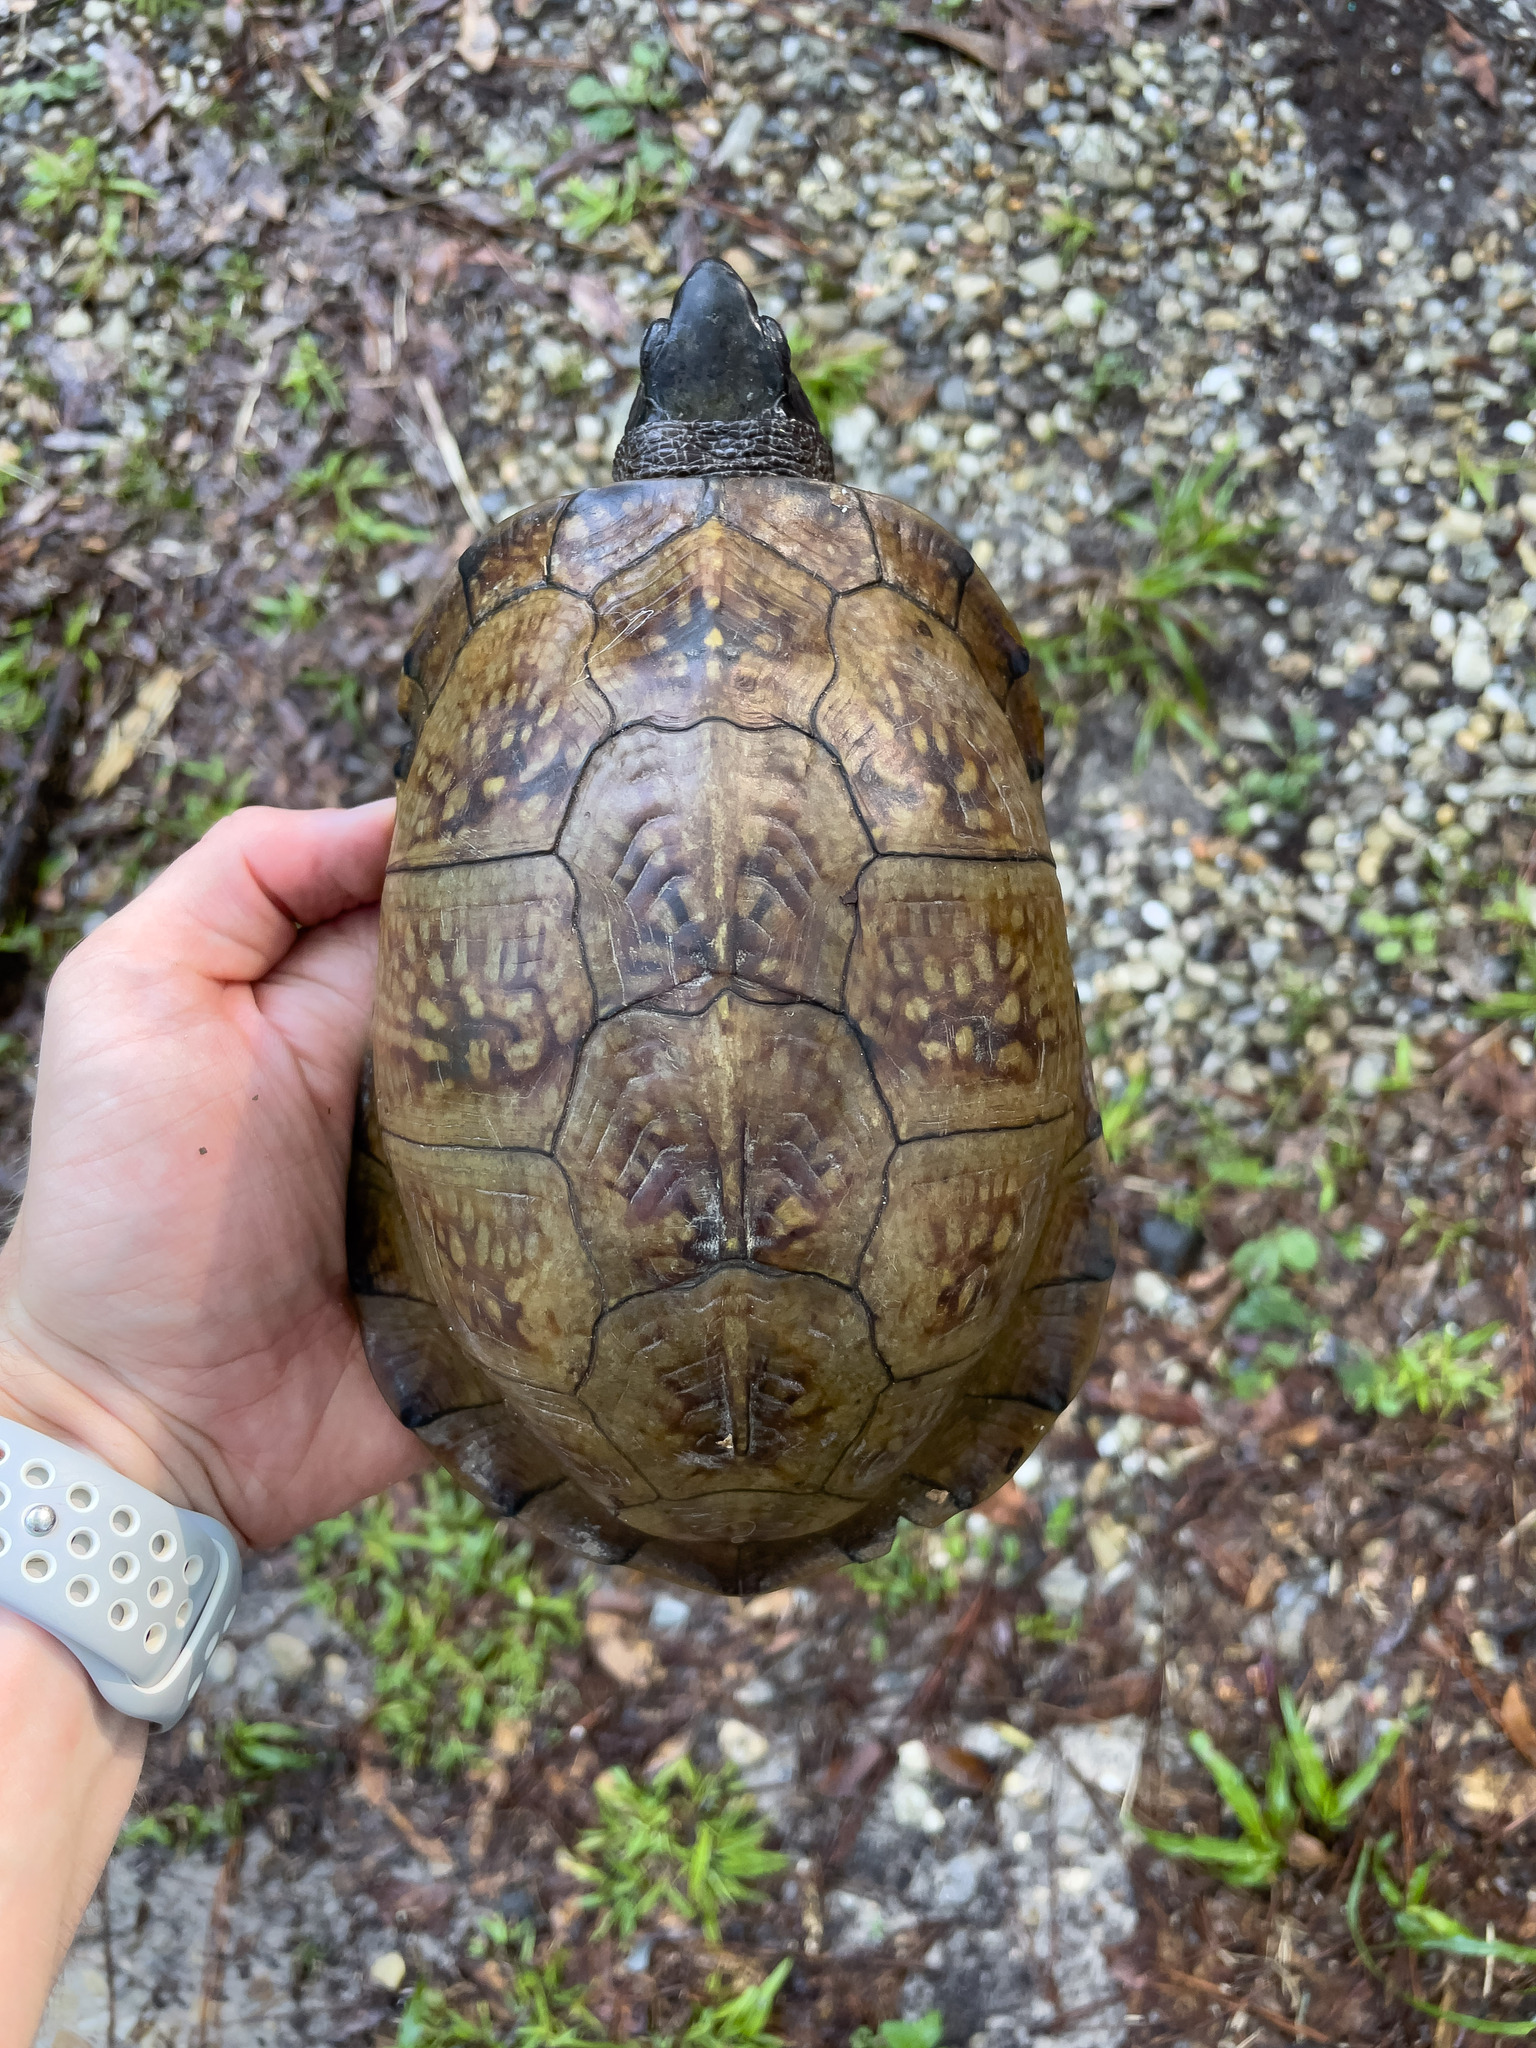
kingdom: Animalia
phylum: Chordata
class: Testudines
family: Emydidae
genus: Terrapene
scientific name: Terrapene carolina
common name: Common box turtle
